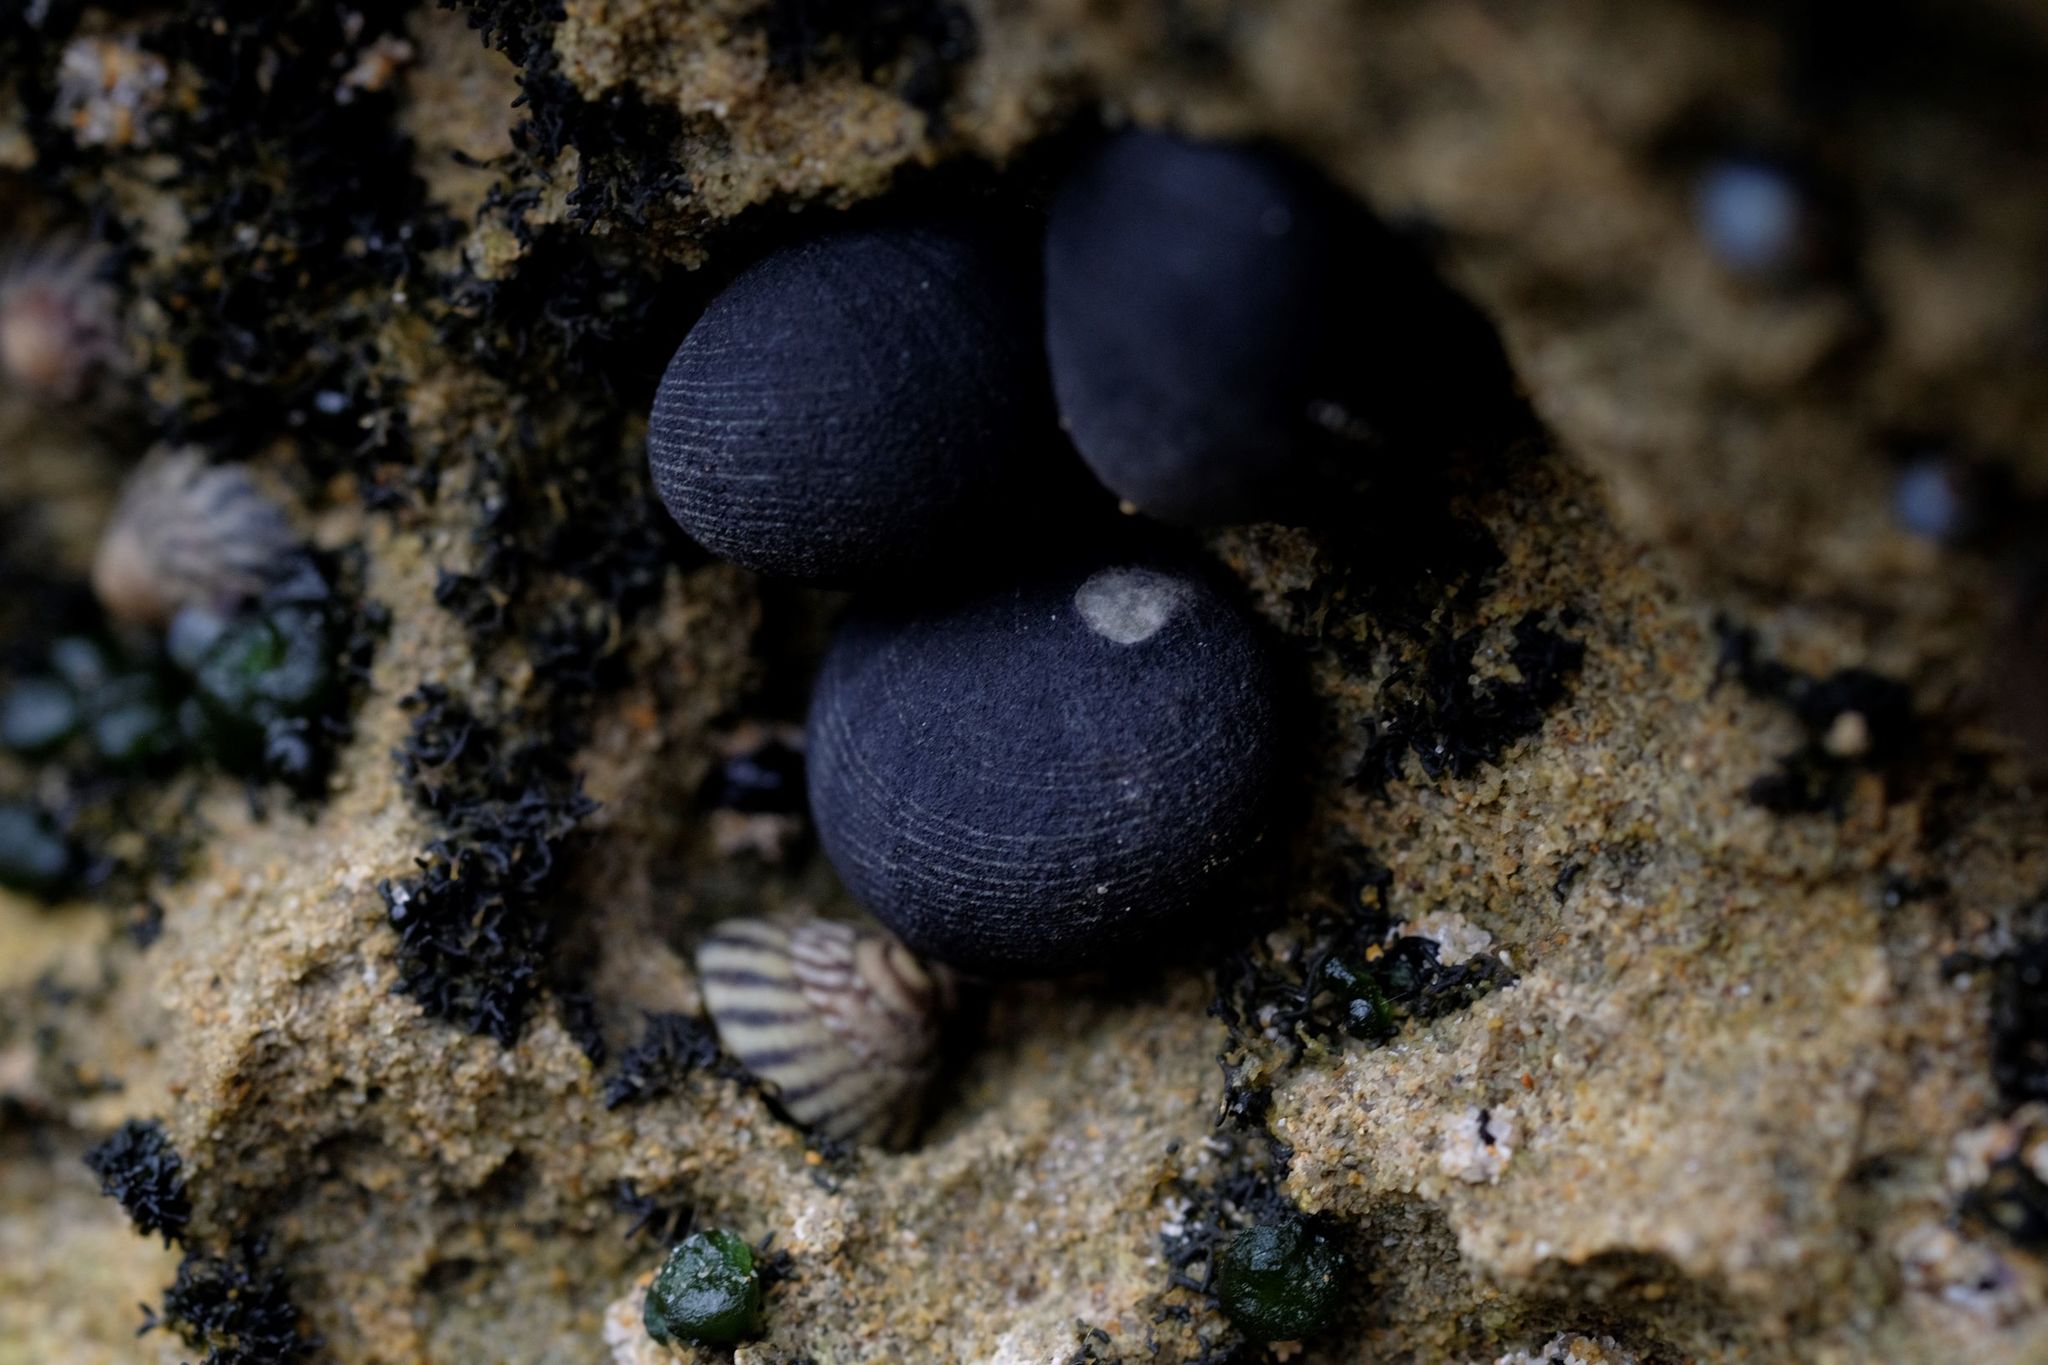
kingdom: Animalia
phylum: Mollusca
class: Gastropoda
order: Cycloneritida
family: Neritidae
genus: Nerita
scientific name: Nerita atramentosa
